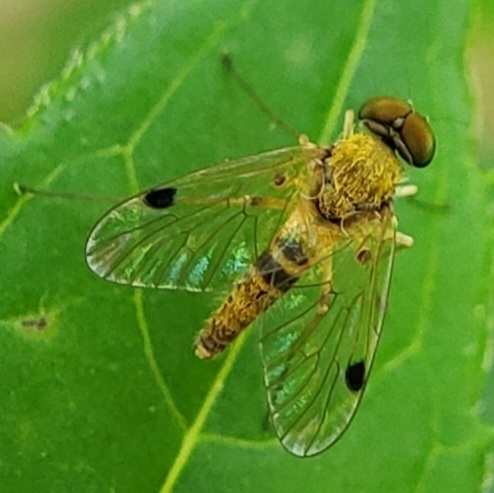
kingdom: Animalia
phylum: Arthropoda
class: Insecta
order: Diptera
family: Rhagionidae
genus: Chrysopilus
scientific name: Chrysopilus modestus
